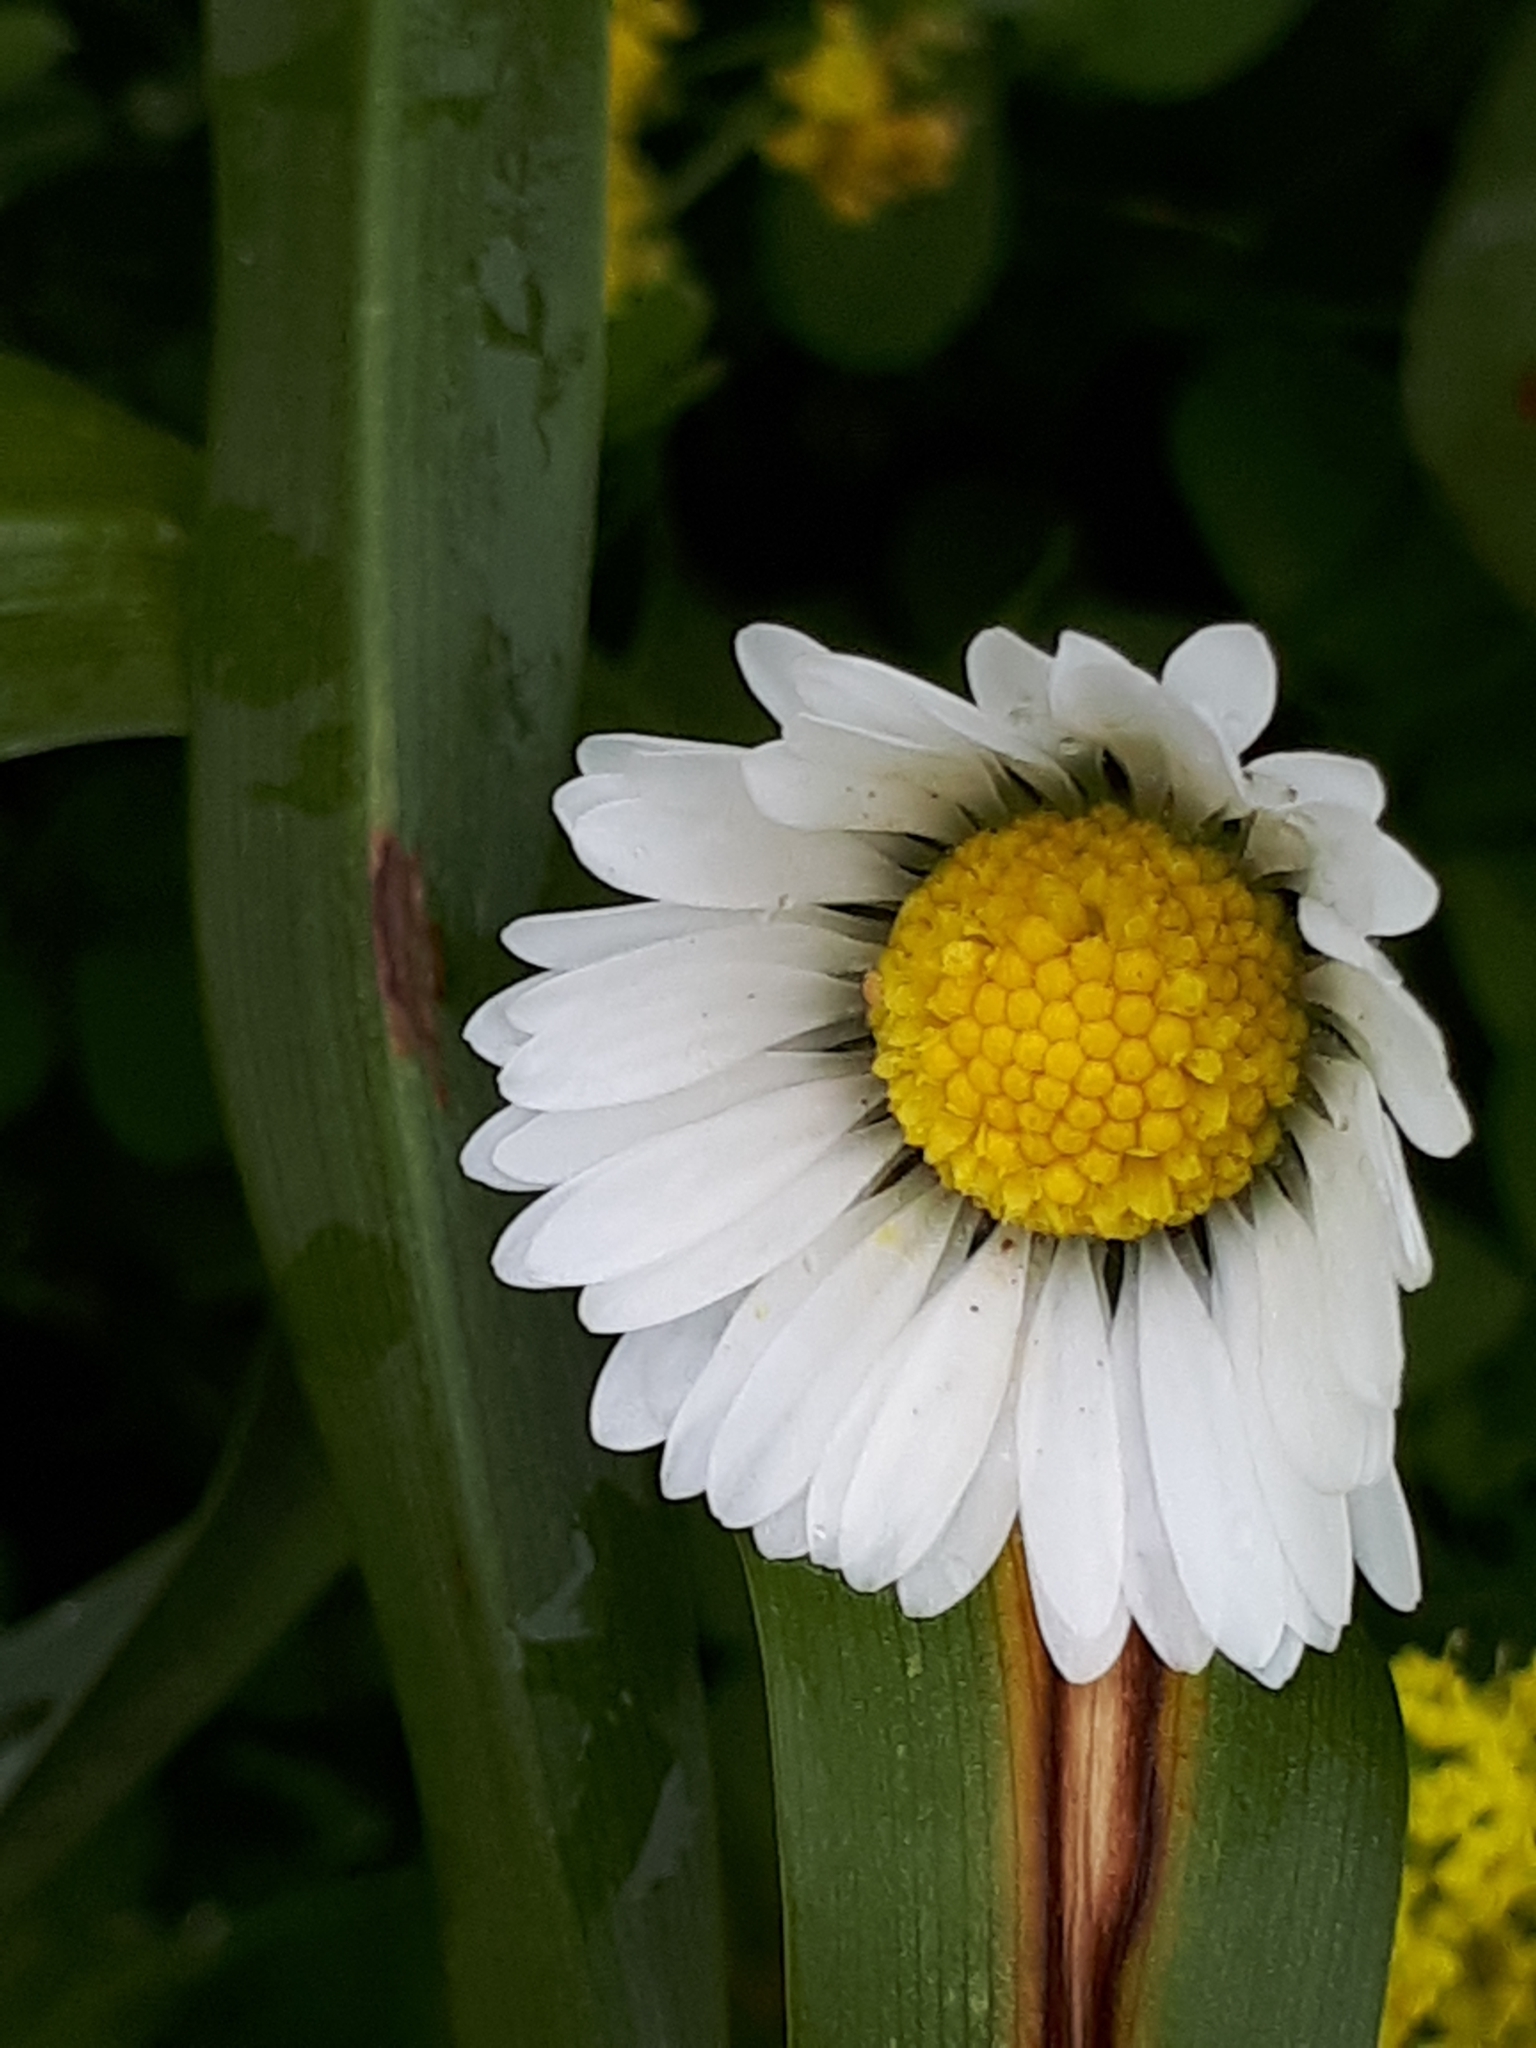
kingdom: Plantae
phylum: Tracheophyta
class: Magnoliopsida
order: Asterales
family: Asteraceae
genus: Bellis
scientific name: Bellis perennis
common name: Lawndaisy
